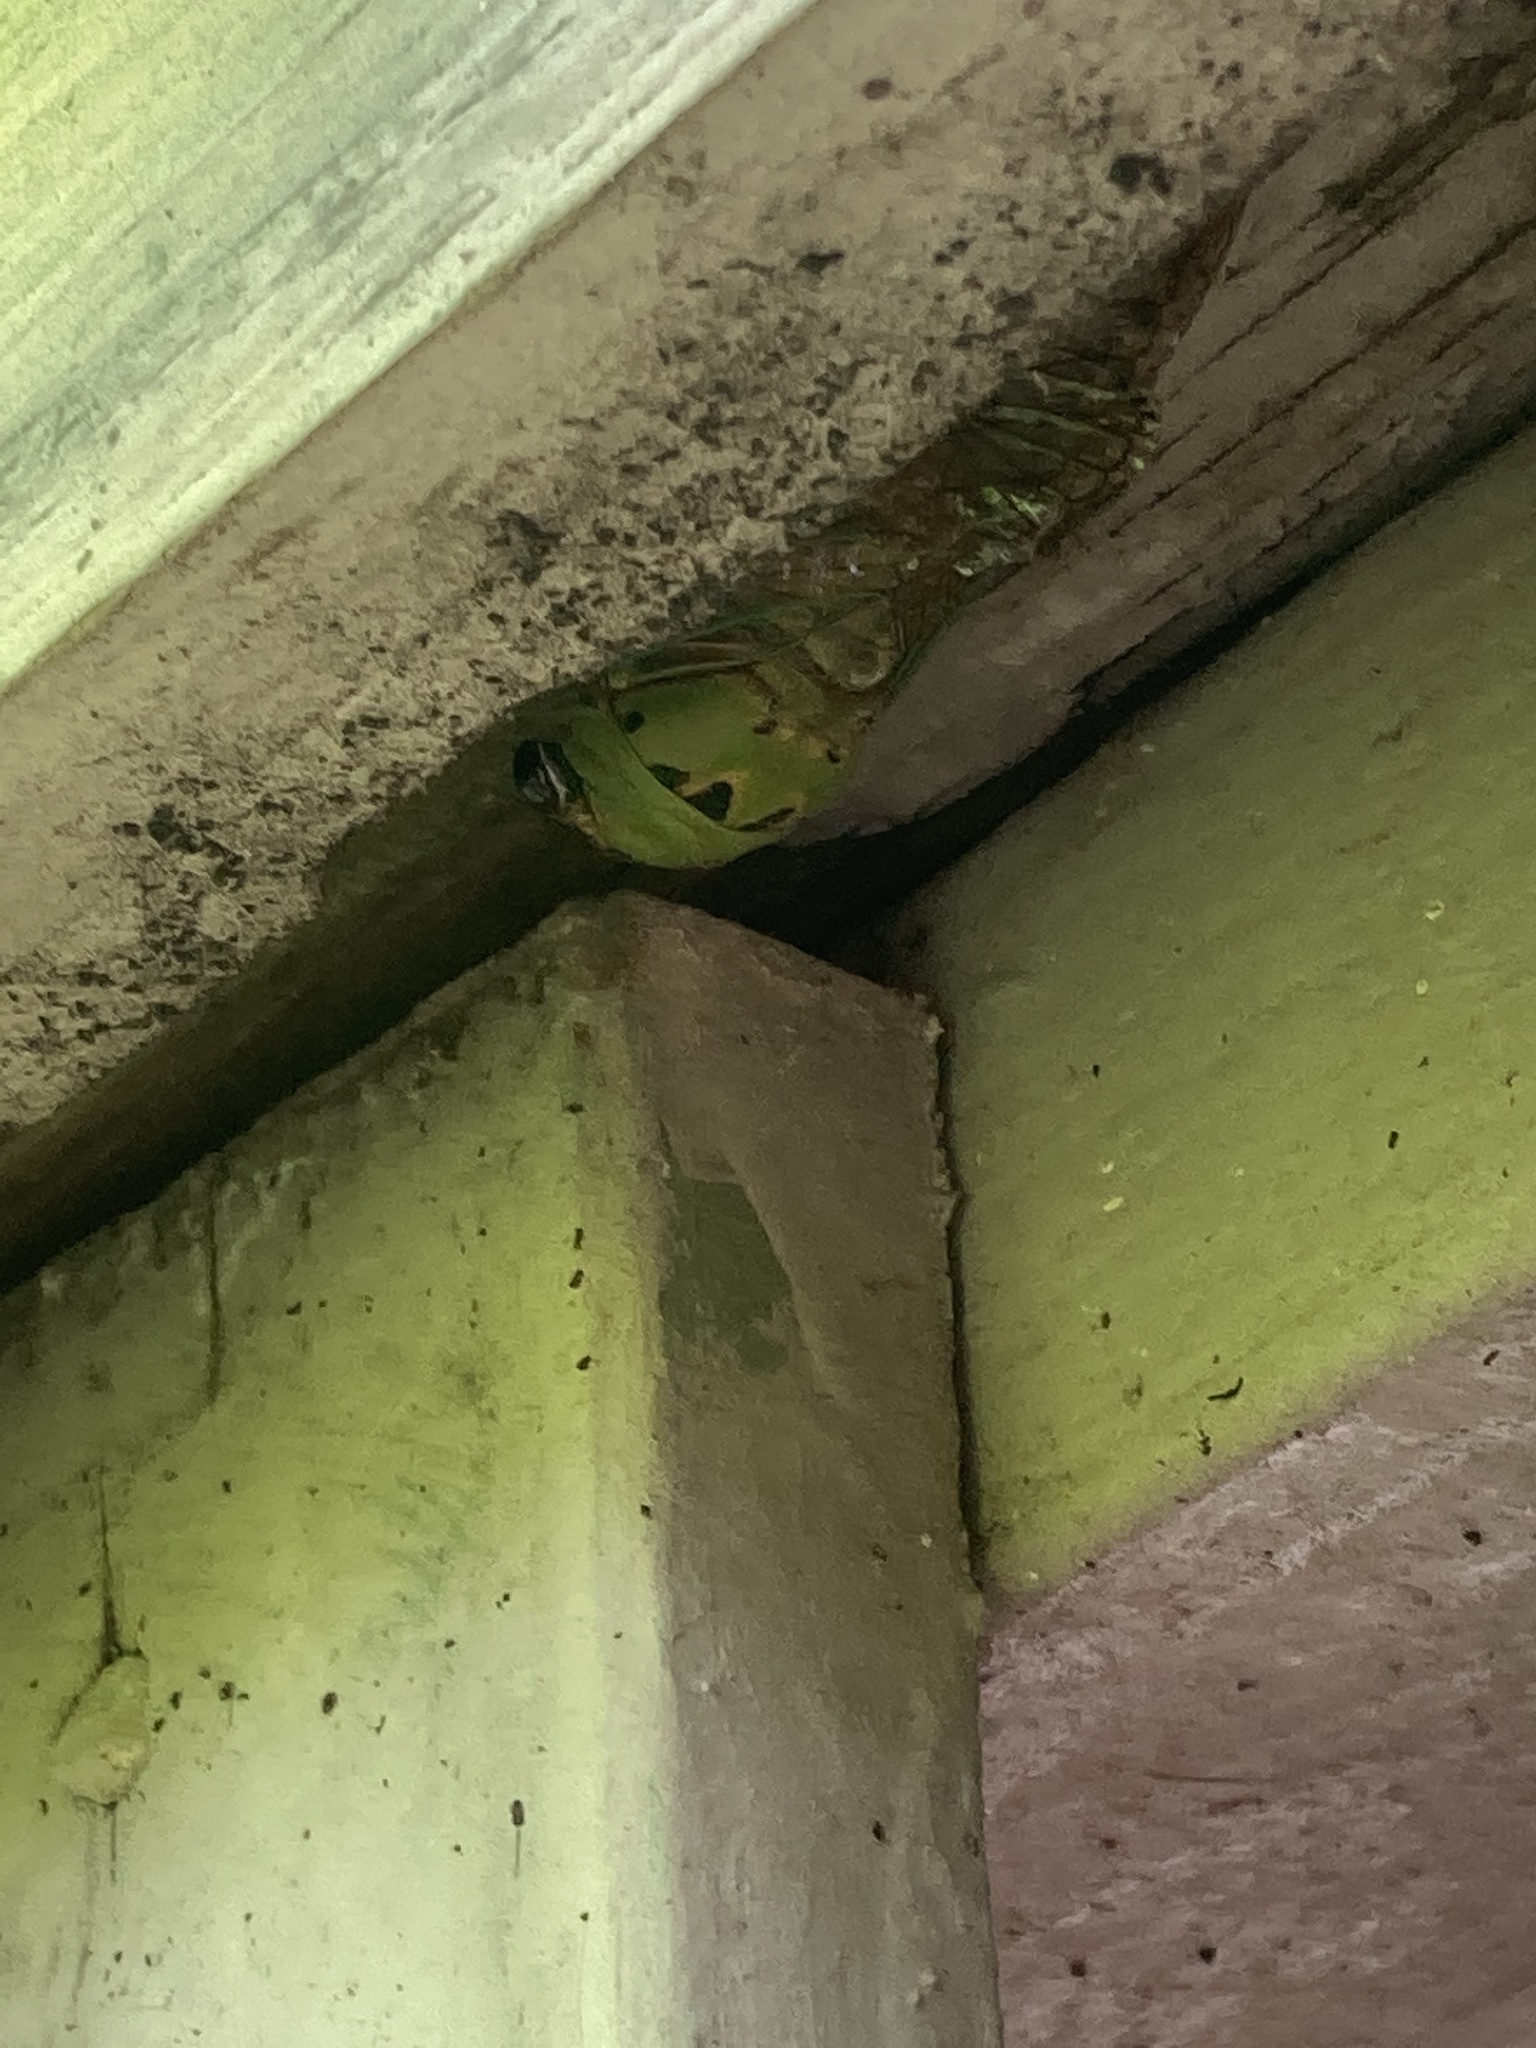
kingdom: Animalia
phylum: Arthropoda
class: Insecta
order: Hemiptera
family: Cicadidae
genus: Neotibicen
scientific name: Neotibicen superbus
